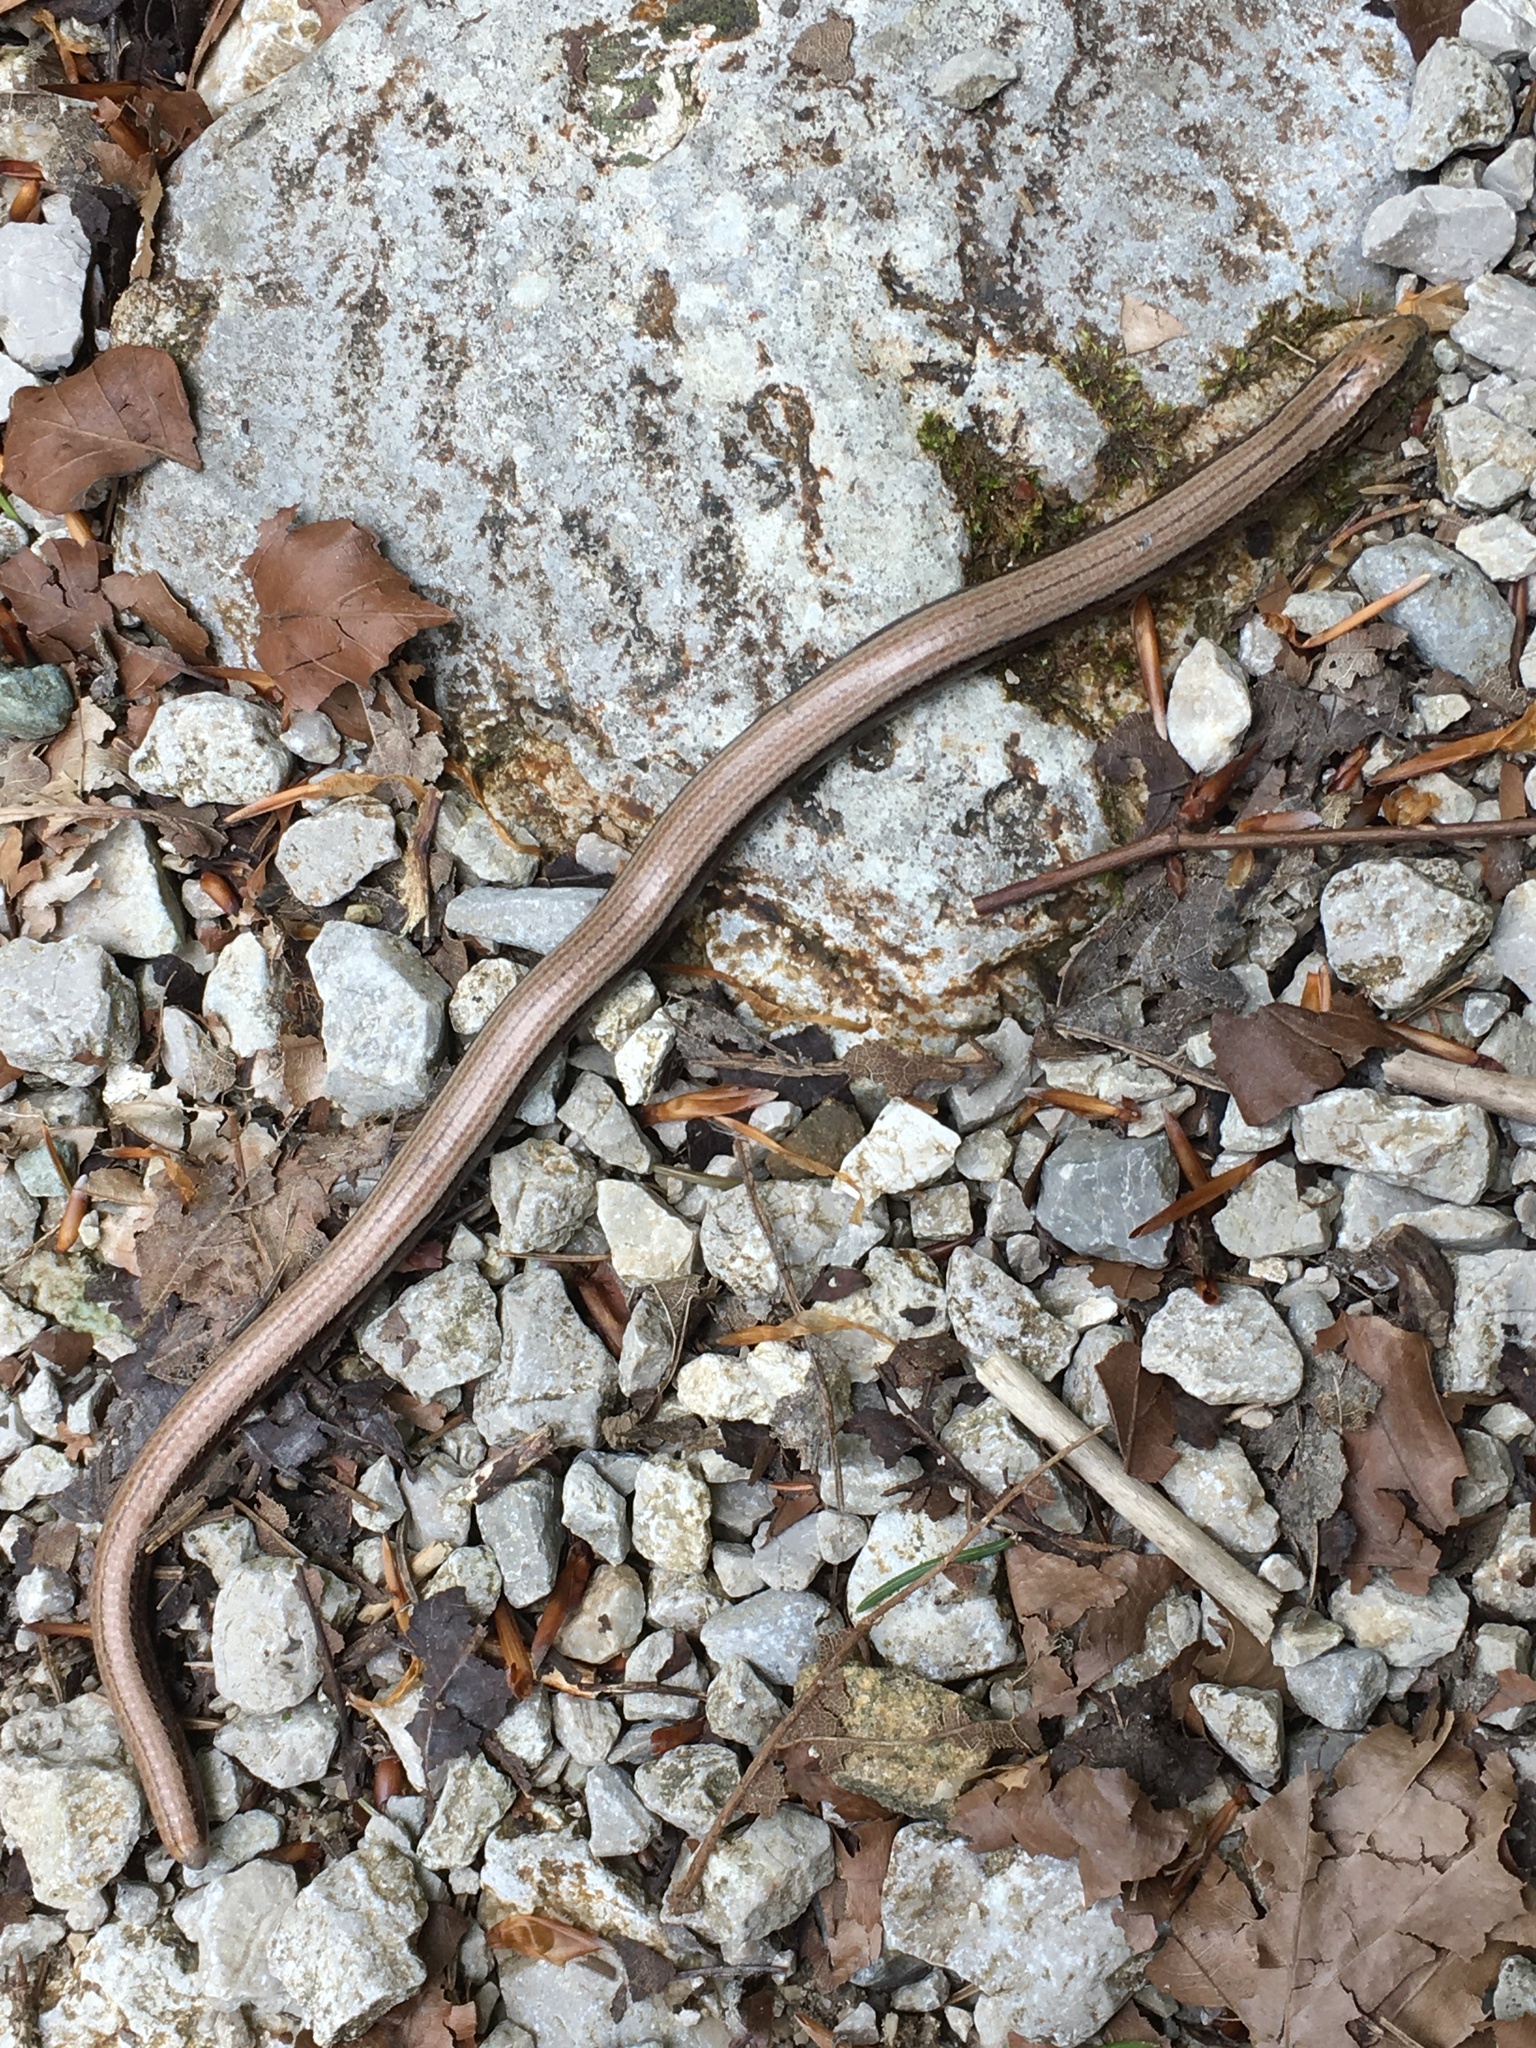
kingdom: Animalia
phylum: Chordata
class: Squamata
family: Anguidae
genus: Anguis
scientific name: Anguis fragilis
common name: Slow worm
